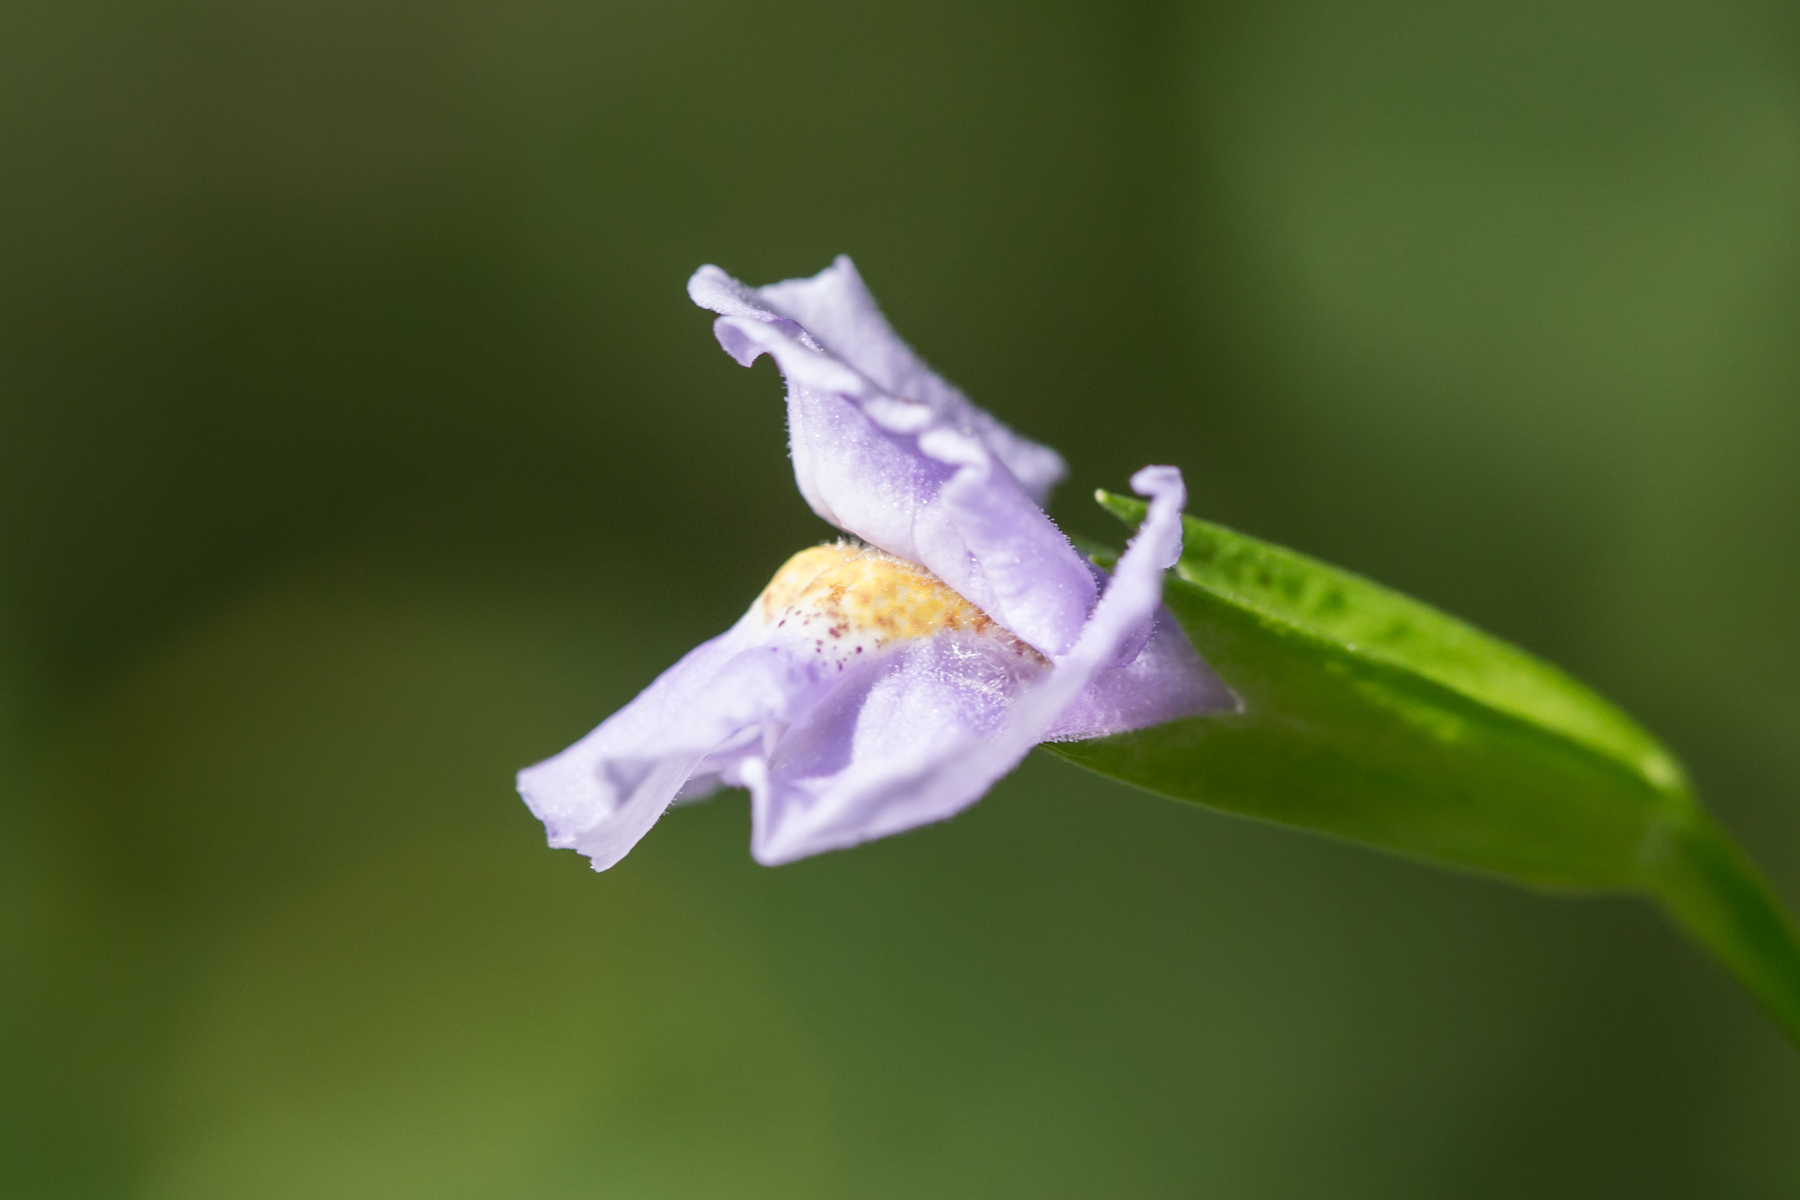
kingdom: Plantae
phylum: Tracheophyta
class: Magnoliopsida
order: Lamiales
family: Phrymaceae
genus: Mimulus
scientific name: Mimulus ringens
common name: Allegheny monkeyflower
